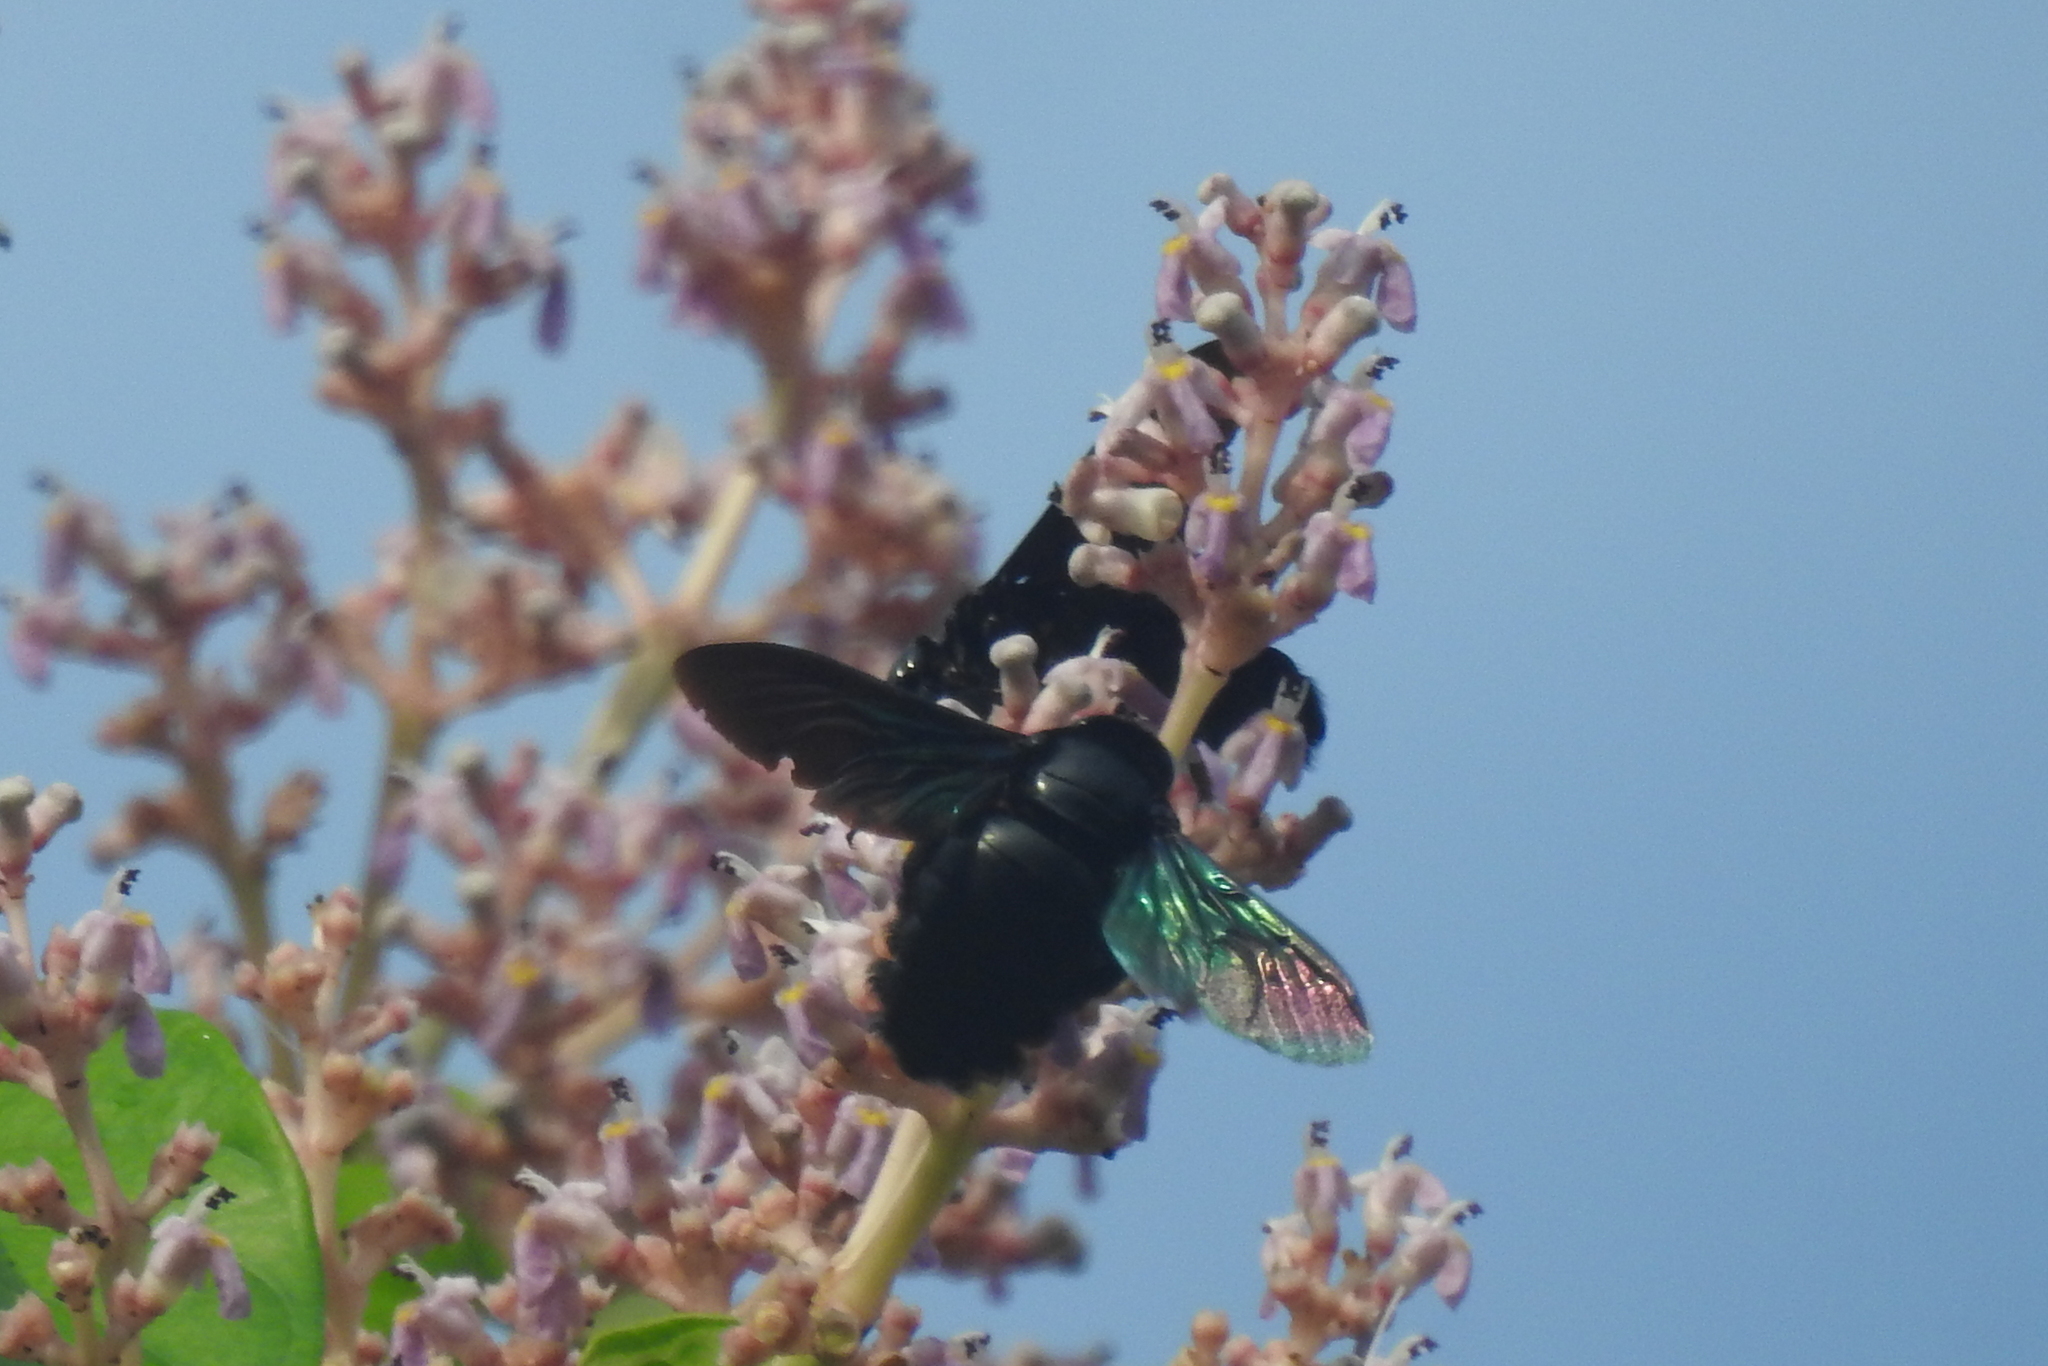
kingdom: Animalia
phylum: Arthropoda
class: Insecta
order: Hymenoptera
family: Apidae
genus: Xylocopa
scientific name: Xylocopa latipes
